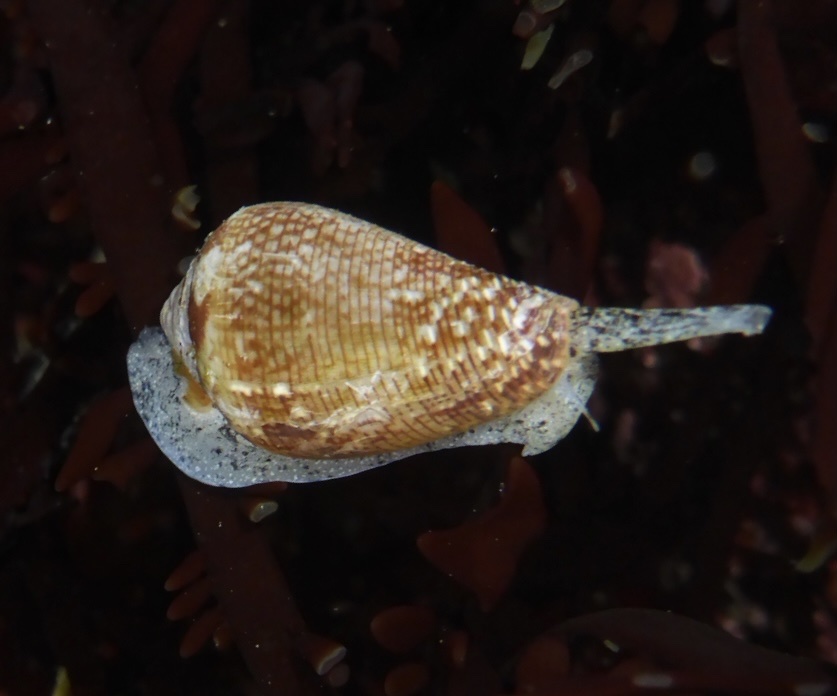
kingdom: Animalia
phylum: Mollusca
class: Gastropoda
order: Neogastropoda
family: Conidae
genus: Californiconus
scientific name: Californiconus californicus
